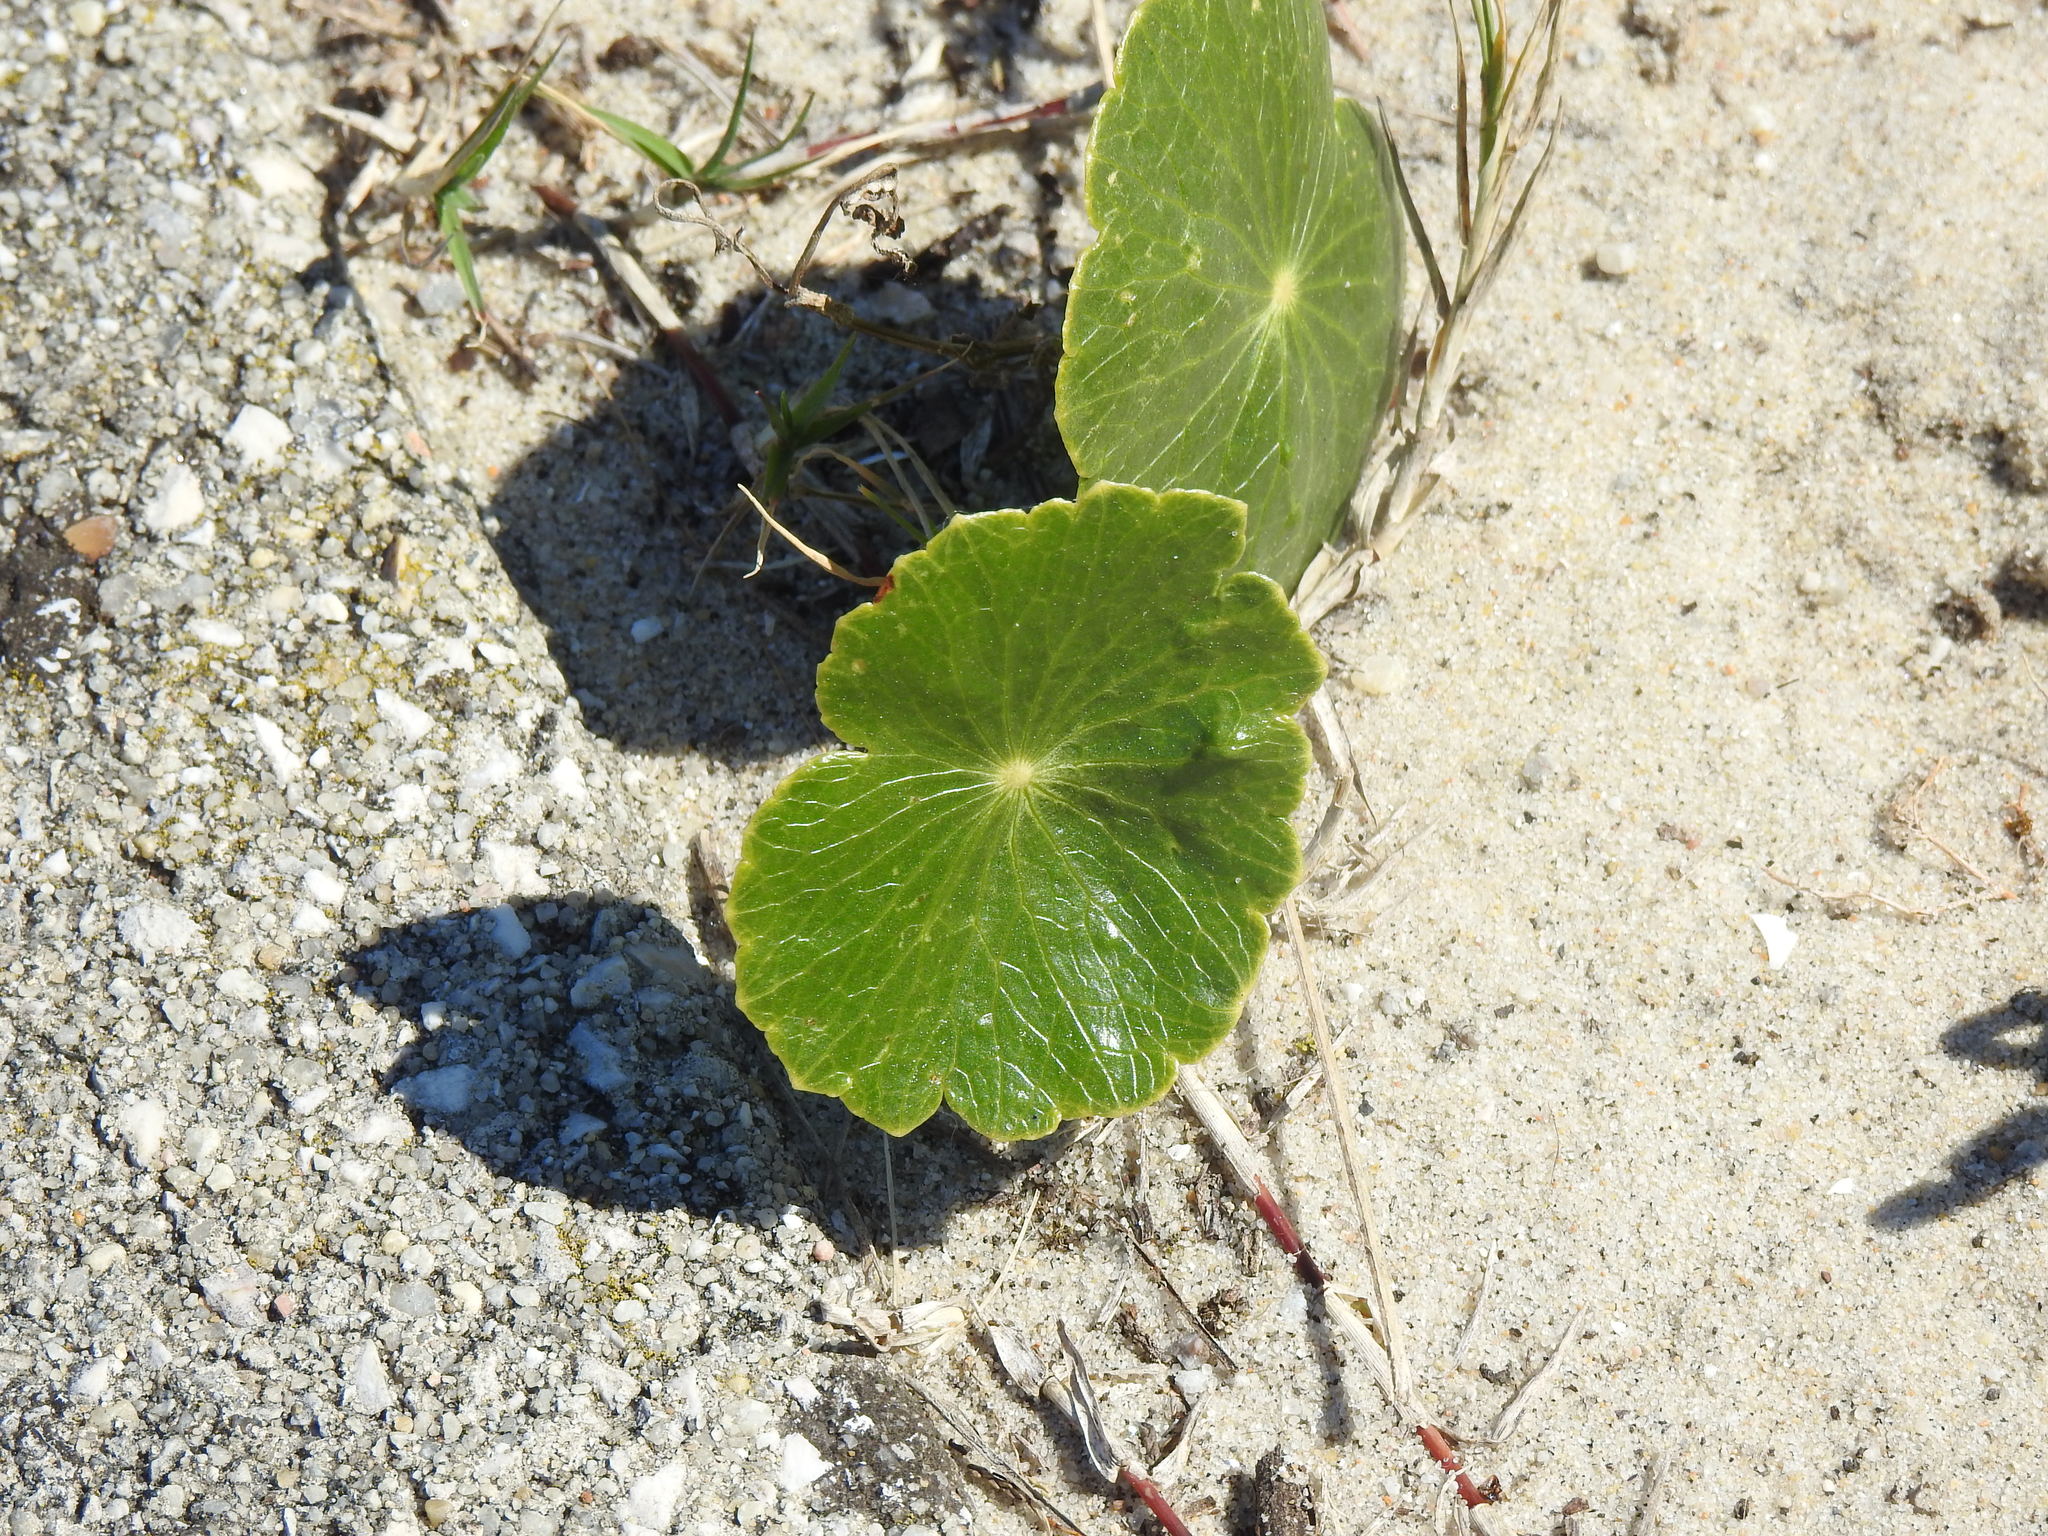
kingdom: Plantae
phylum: Tracheophyta
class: Magnoliopsida
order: Apiales
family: Araliaceae
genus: Hydrocotyle
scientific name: Hydrocotyle bonariensis
